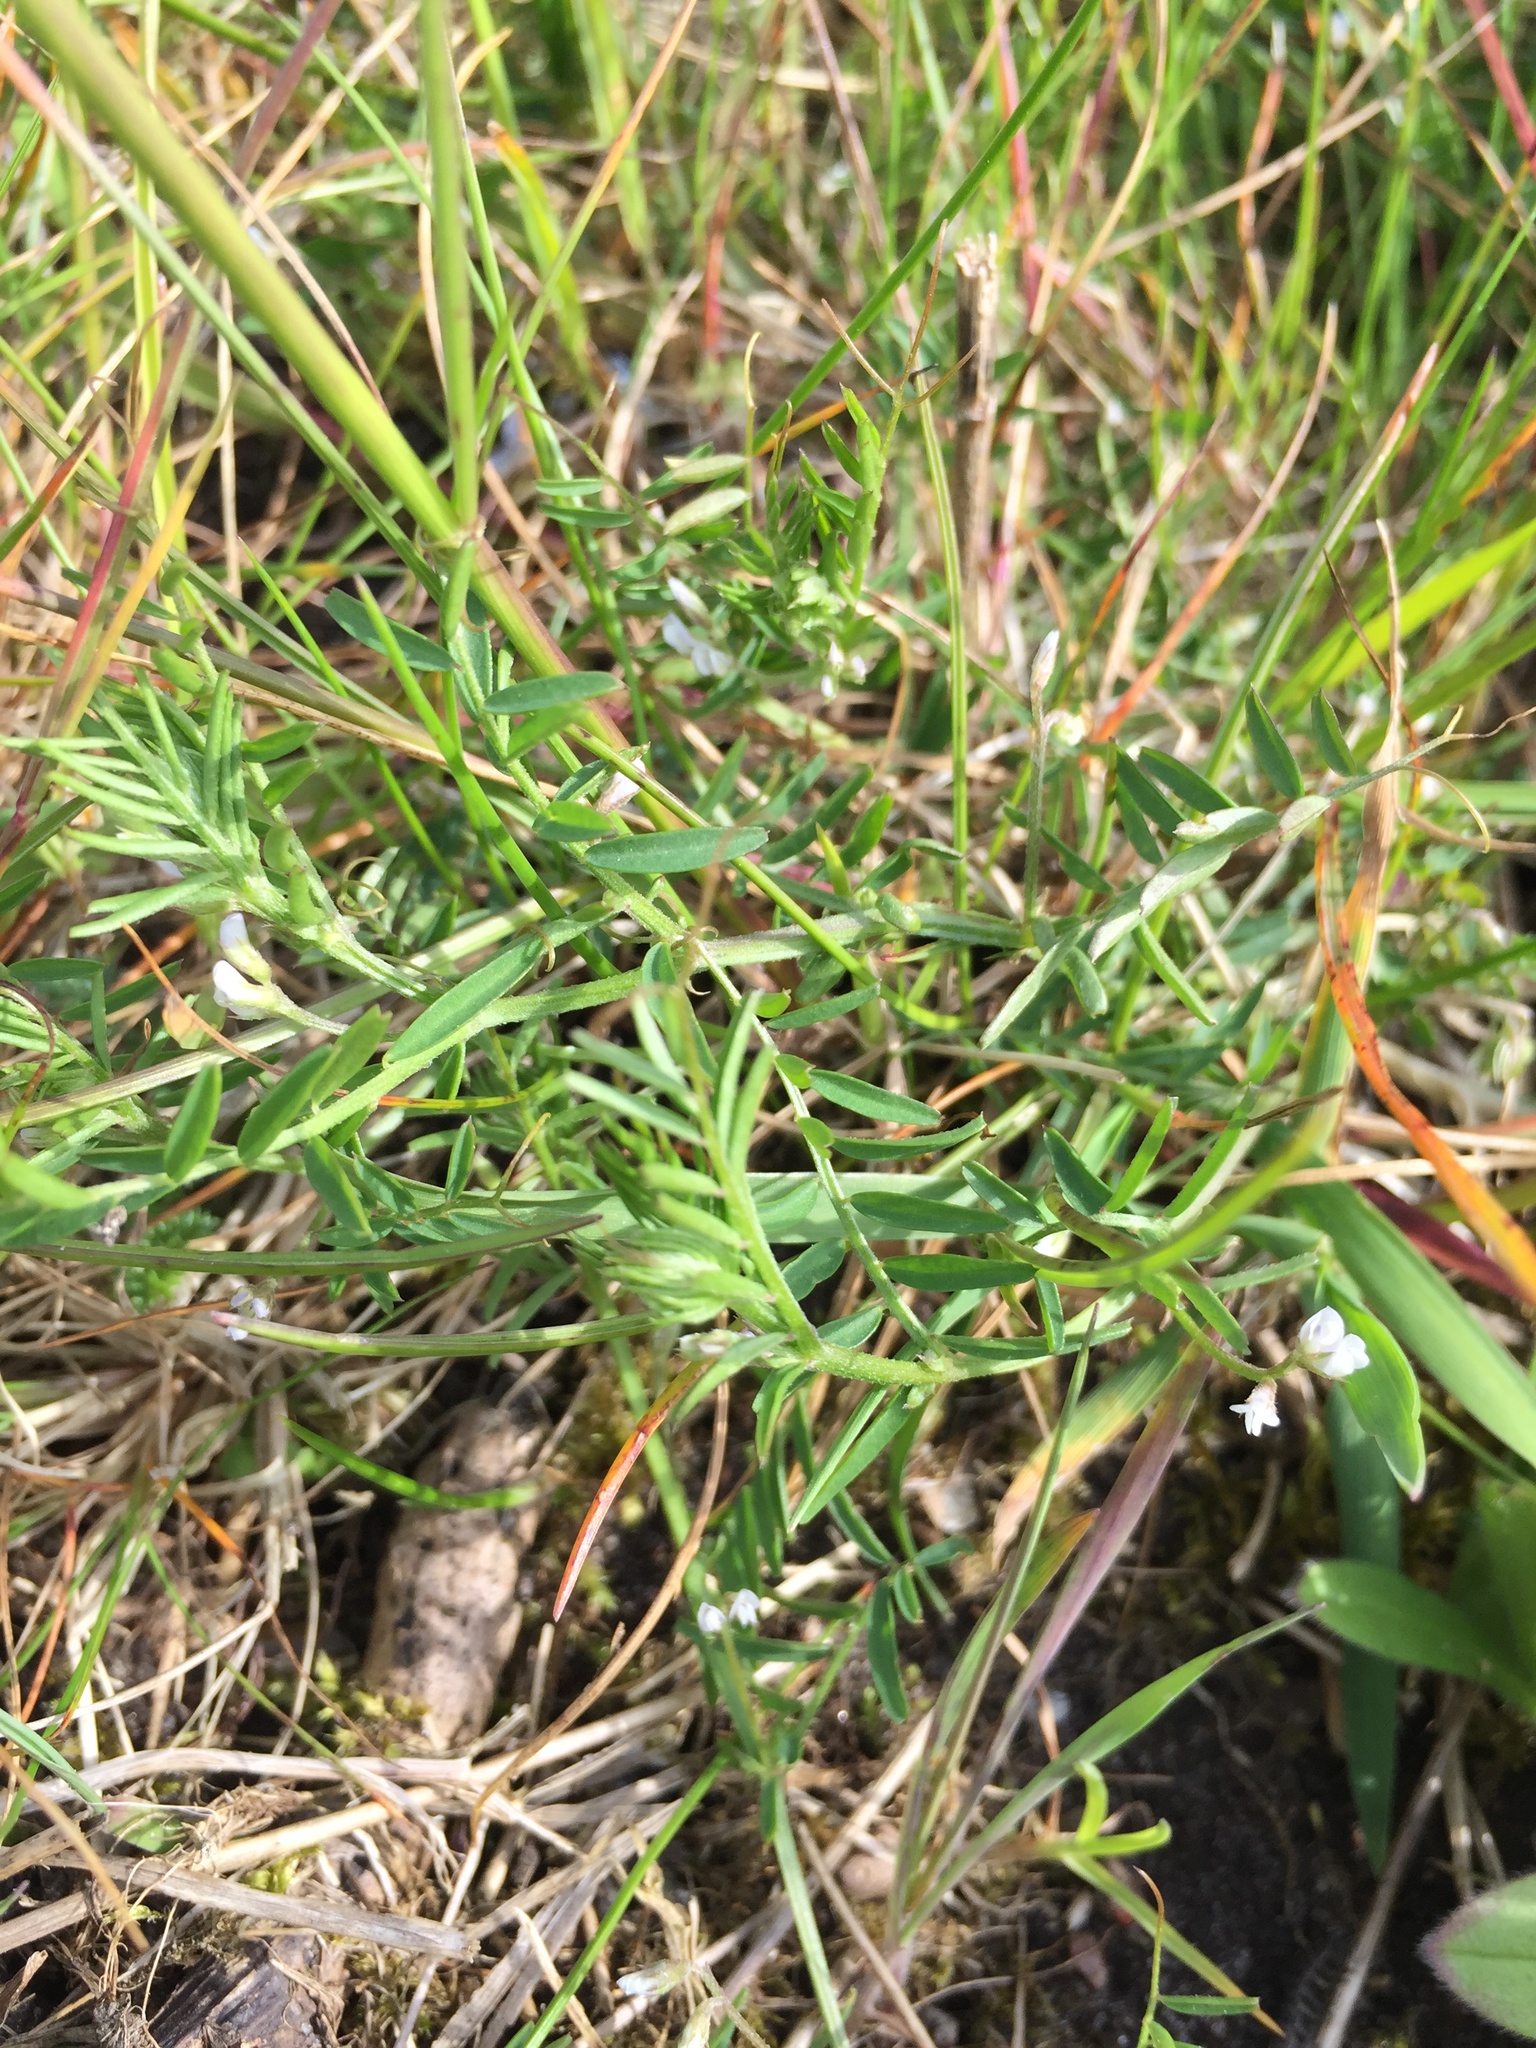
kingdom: Plantae
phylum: Tracheophyta
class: Magnoliopsida
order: Fabales
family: Fabaceae
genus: Vicia
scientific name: Vicia hirsuta
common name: Tiny vetch
